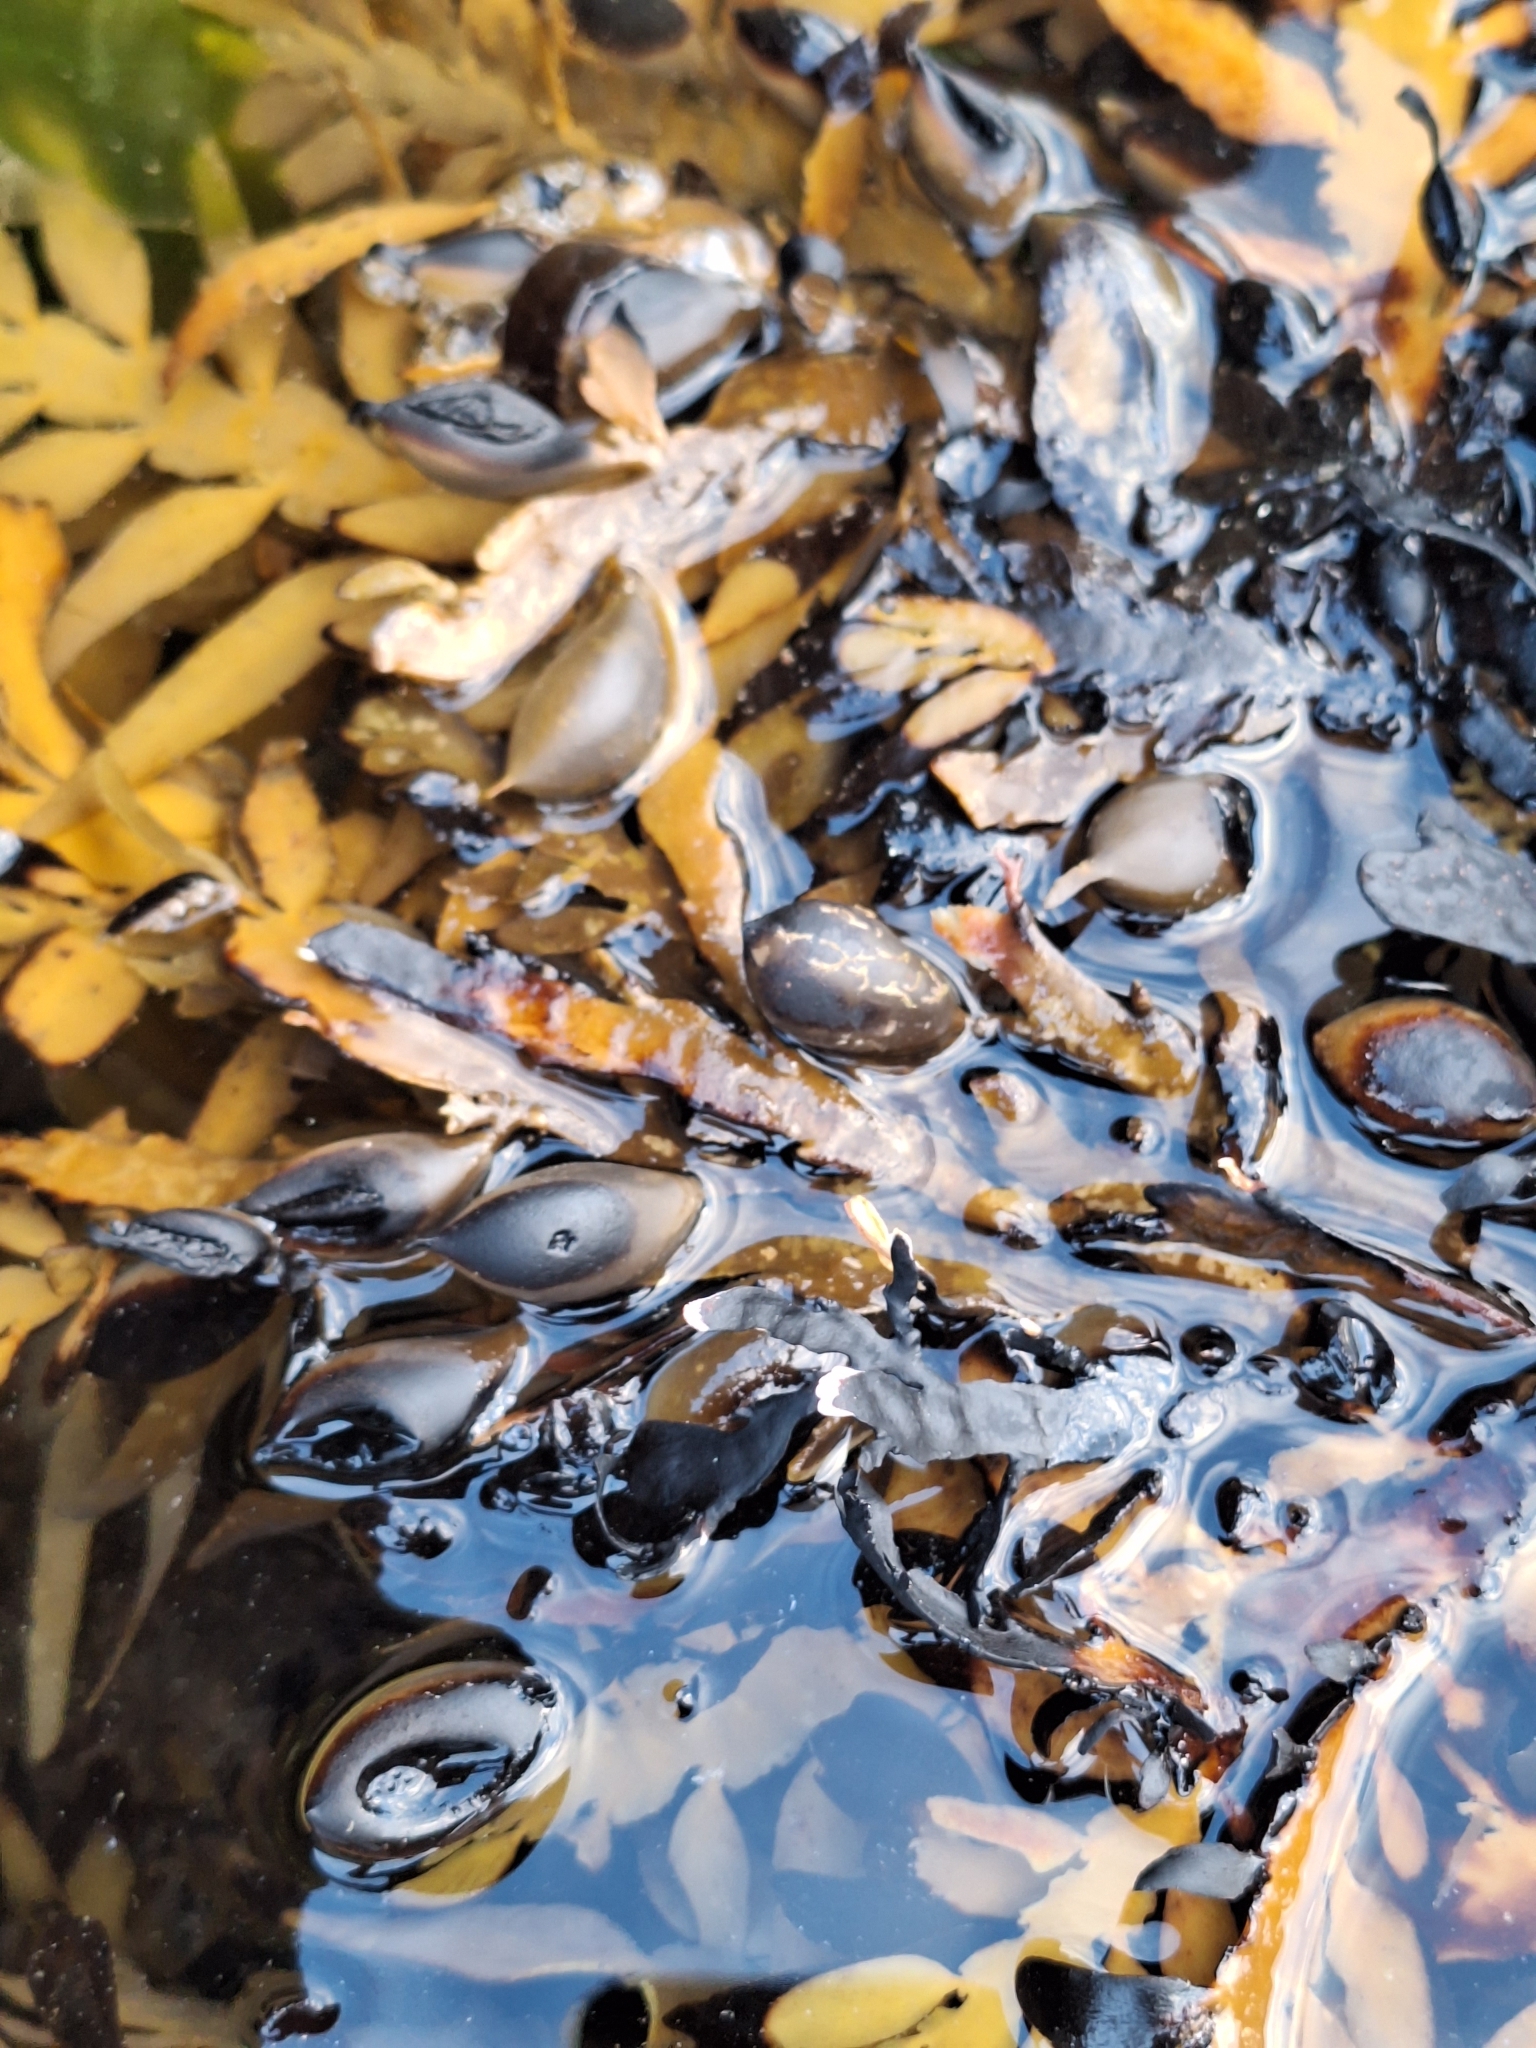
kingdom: Chromista
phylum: Ochrophyta
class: Phaeophyceae
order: Fucales
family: Sargassaceae
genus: Carpophyllum
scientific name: Carpophyllum maschalocarpum
